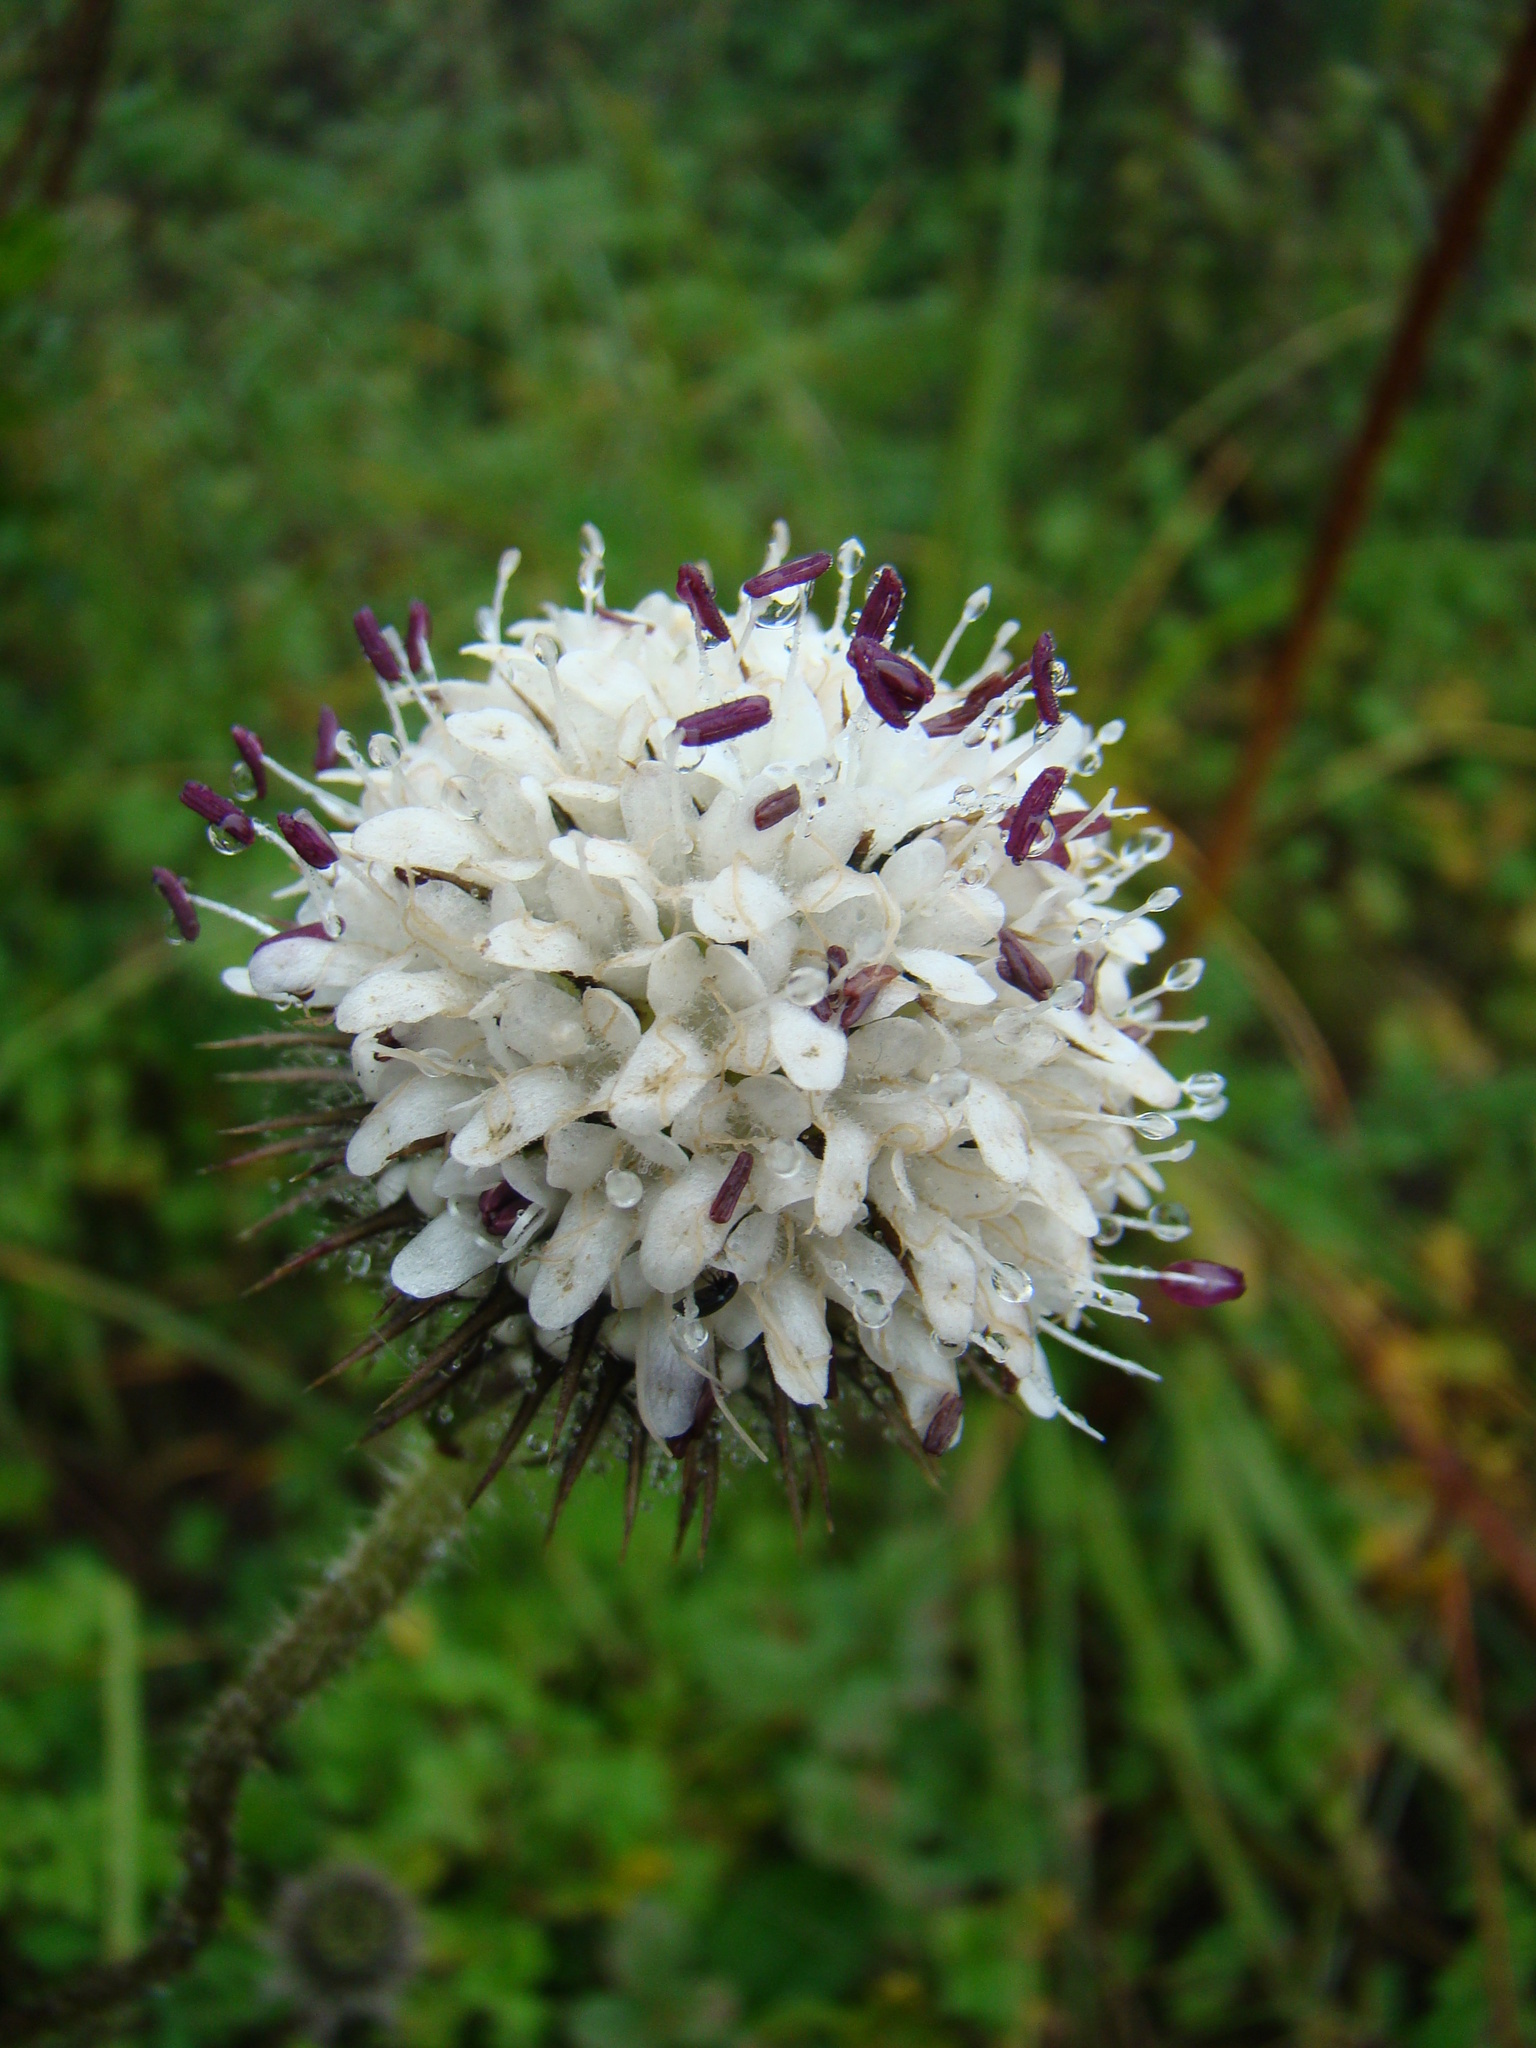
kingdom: Plantae
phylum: Tracheophyta
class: Magnoliopsida
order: Dipsacales
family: Caprifoliaceae
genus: Dipsacus
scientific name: Dipsacus pinnatifidus
